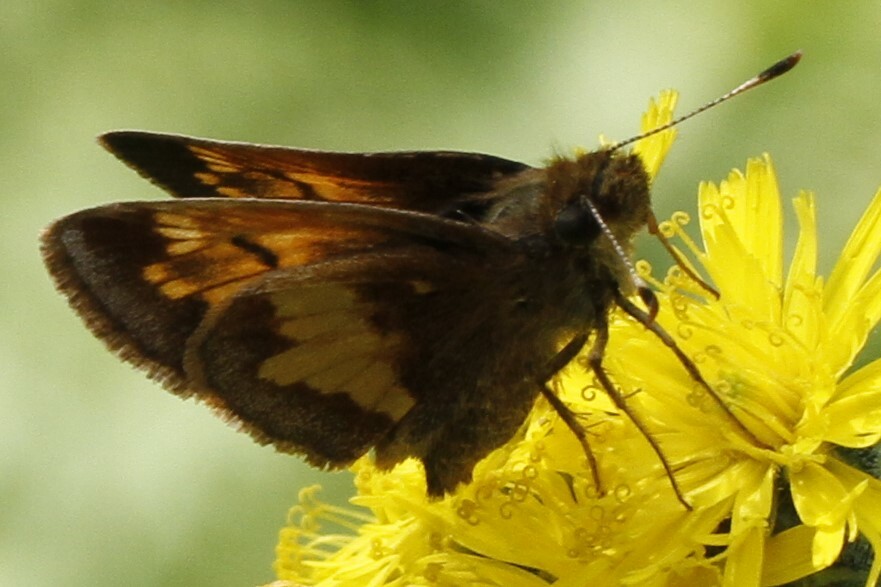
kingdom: Animalia
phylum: Arthropoda
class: Insecta
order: Lepidoptera
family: Hesperiidae
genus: Lon
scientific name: Lon hobomok
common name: Hobomok skipper
